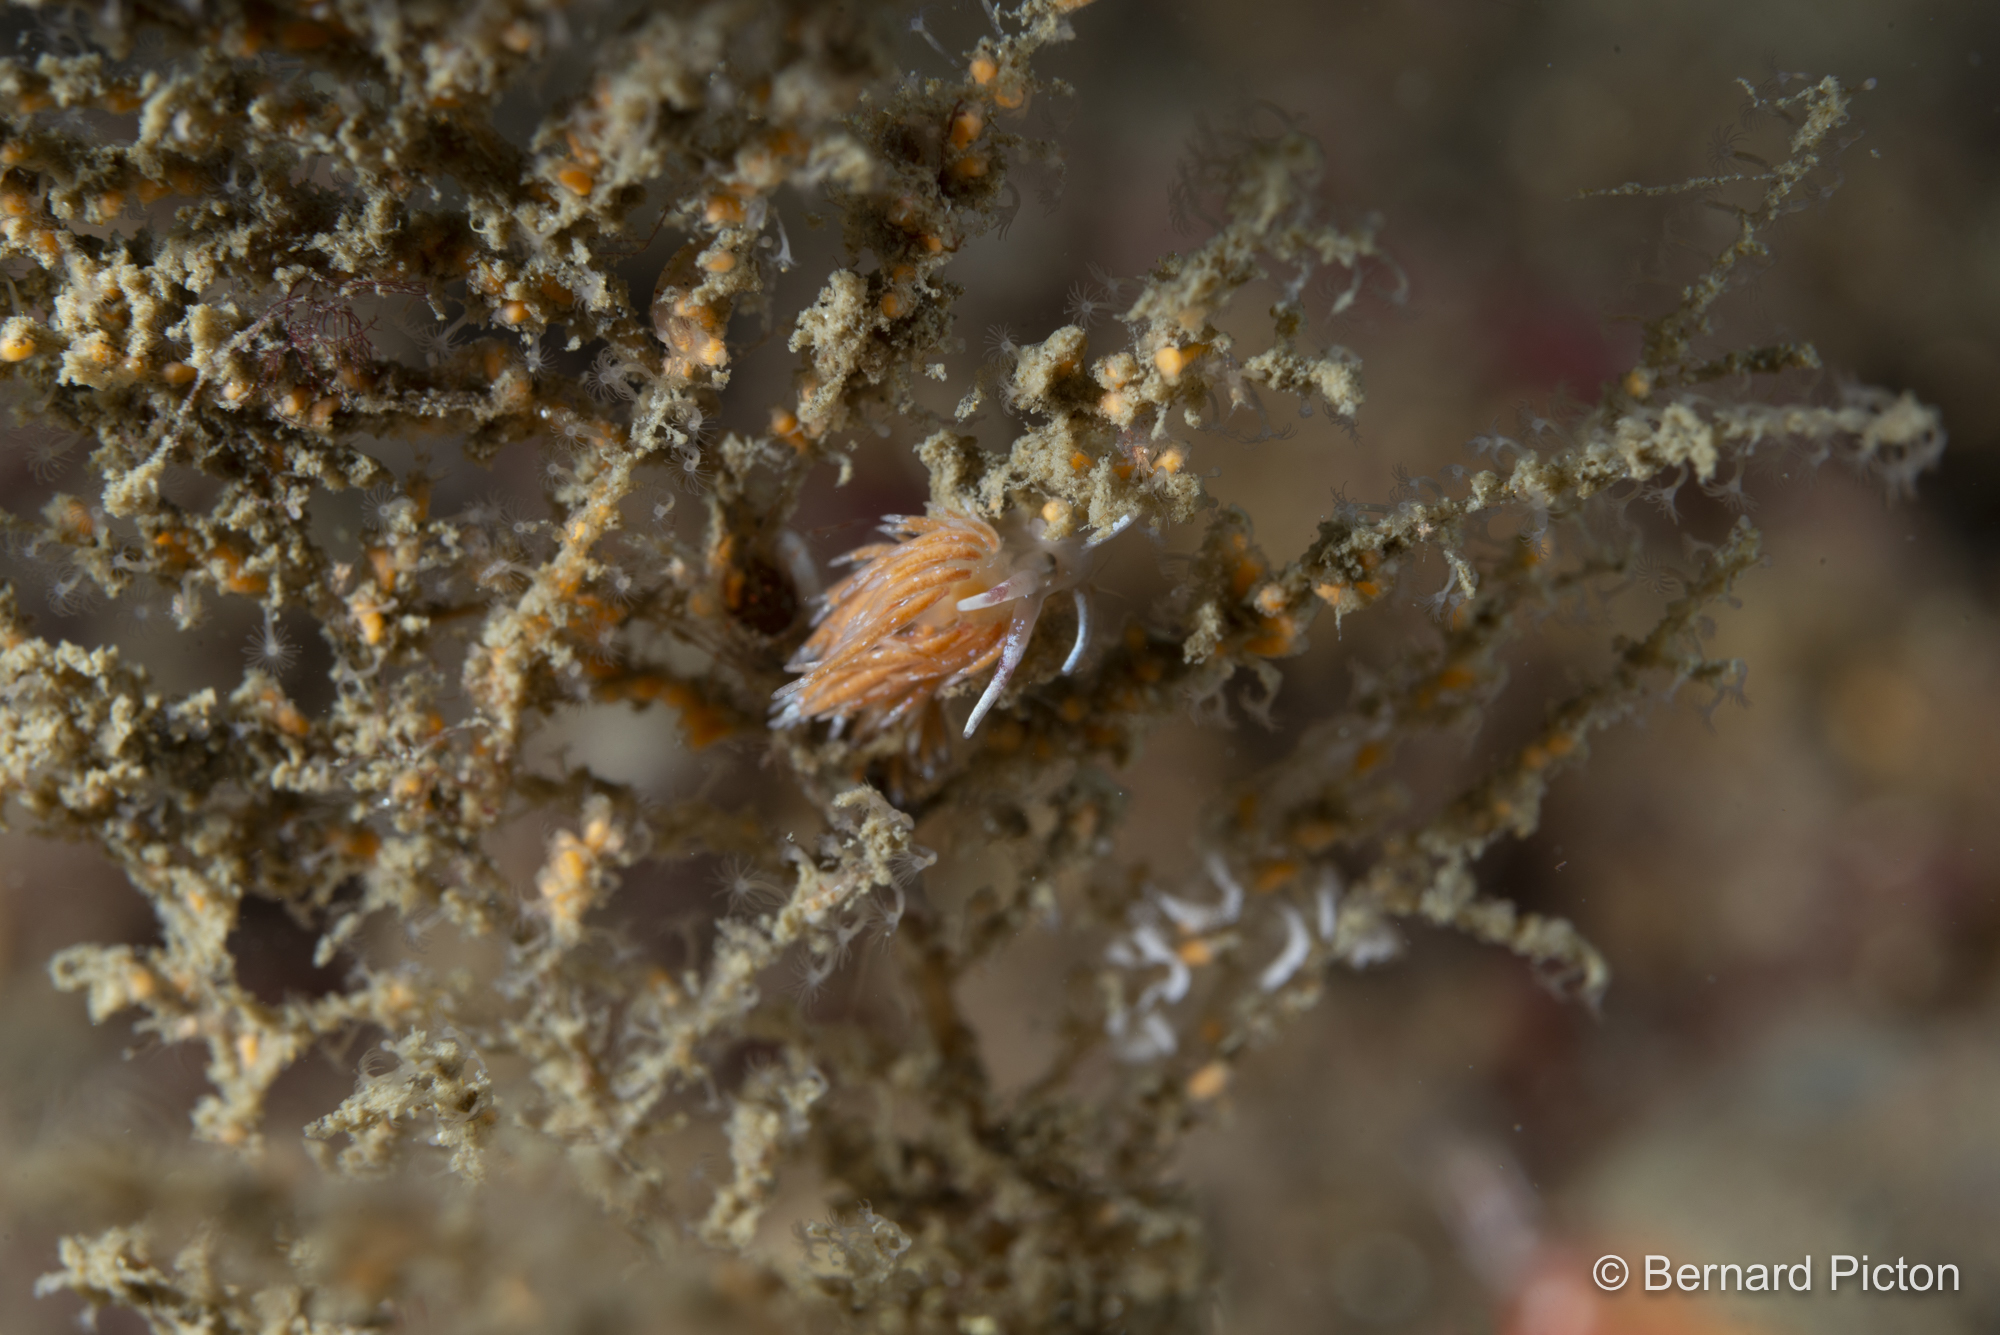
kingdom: Animalia
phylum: Mollusca
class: Gastropoda
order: Nudibranchia
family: Trinchesiidae
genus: Rubramoena
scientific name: Rubramoena rubescens
